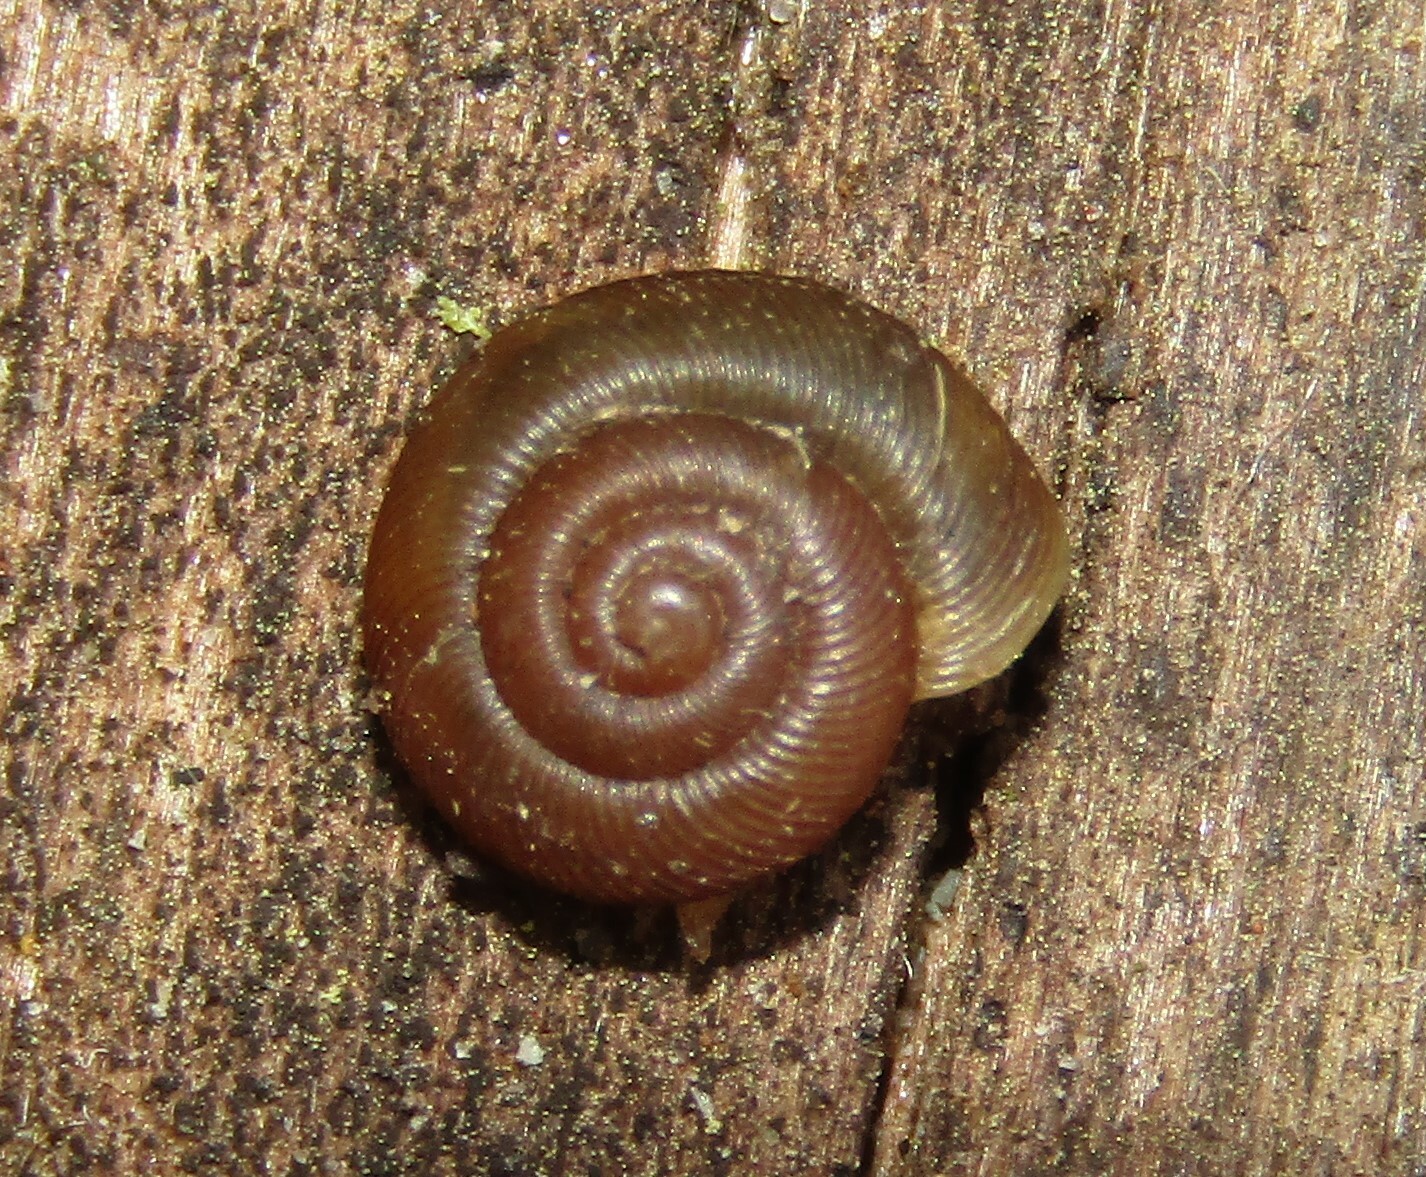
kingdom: Animalia
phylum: Mollusca
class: Gastropoda
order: Stylommatophora
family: Discidae
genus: Discus
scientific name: Discus ruderatus
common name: Brown disc snail
